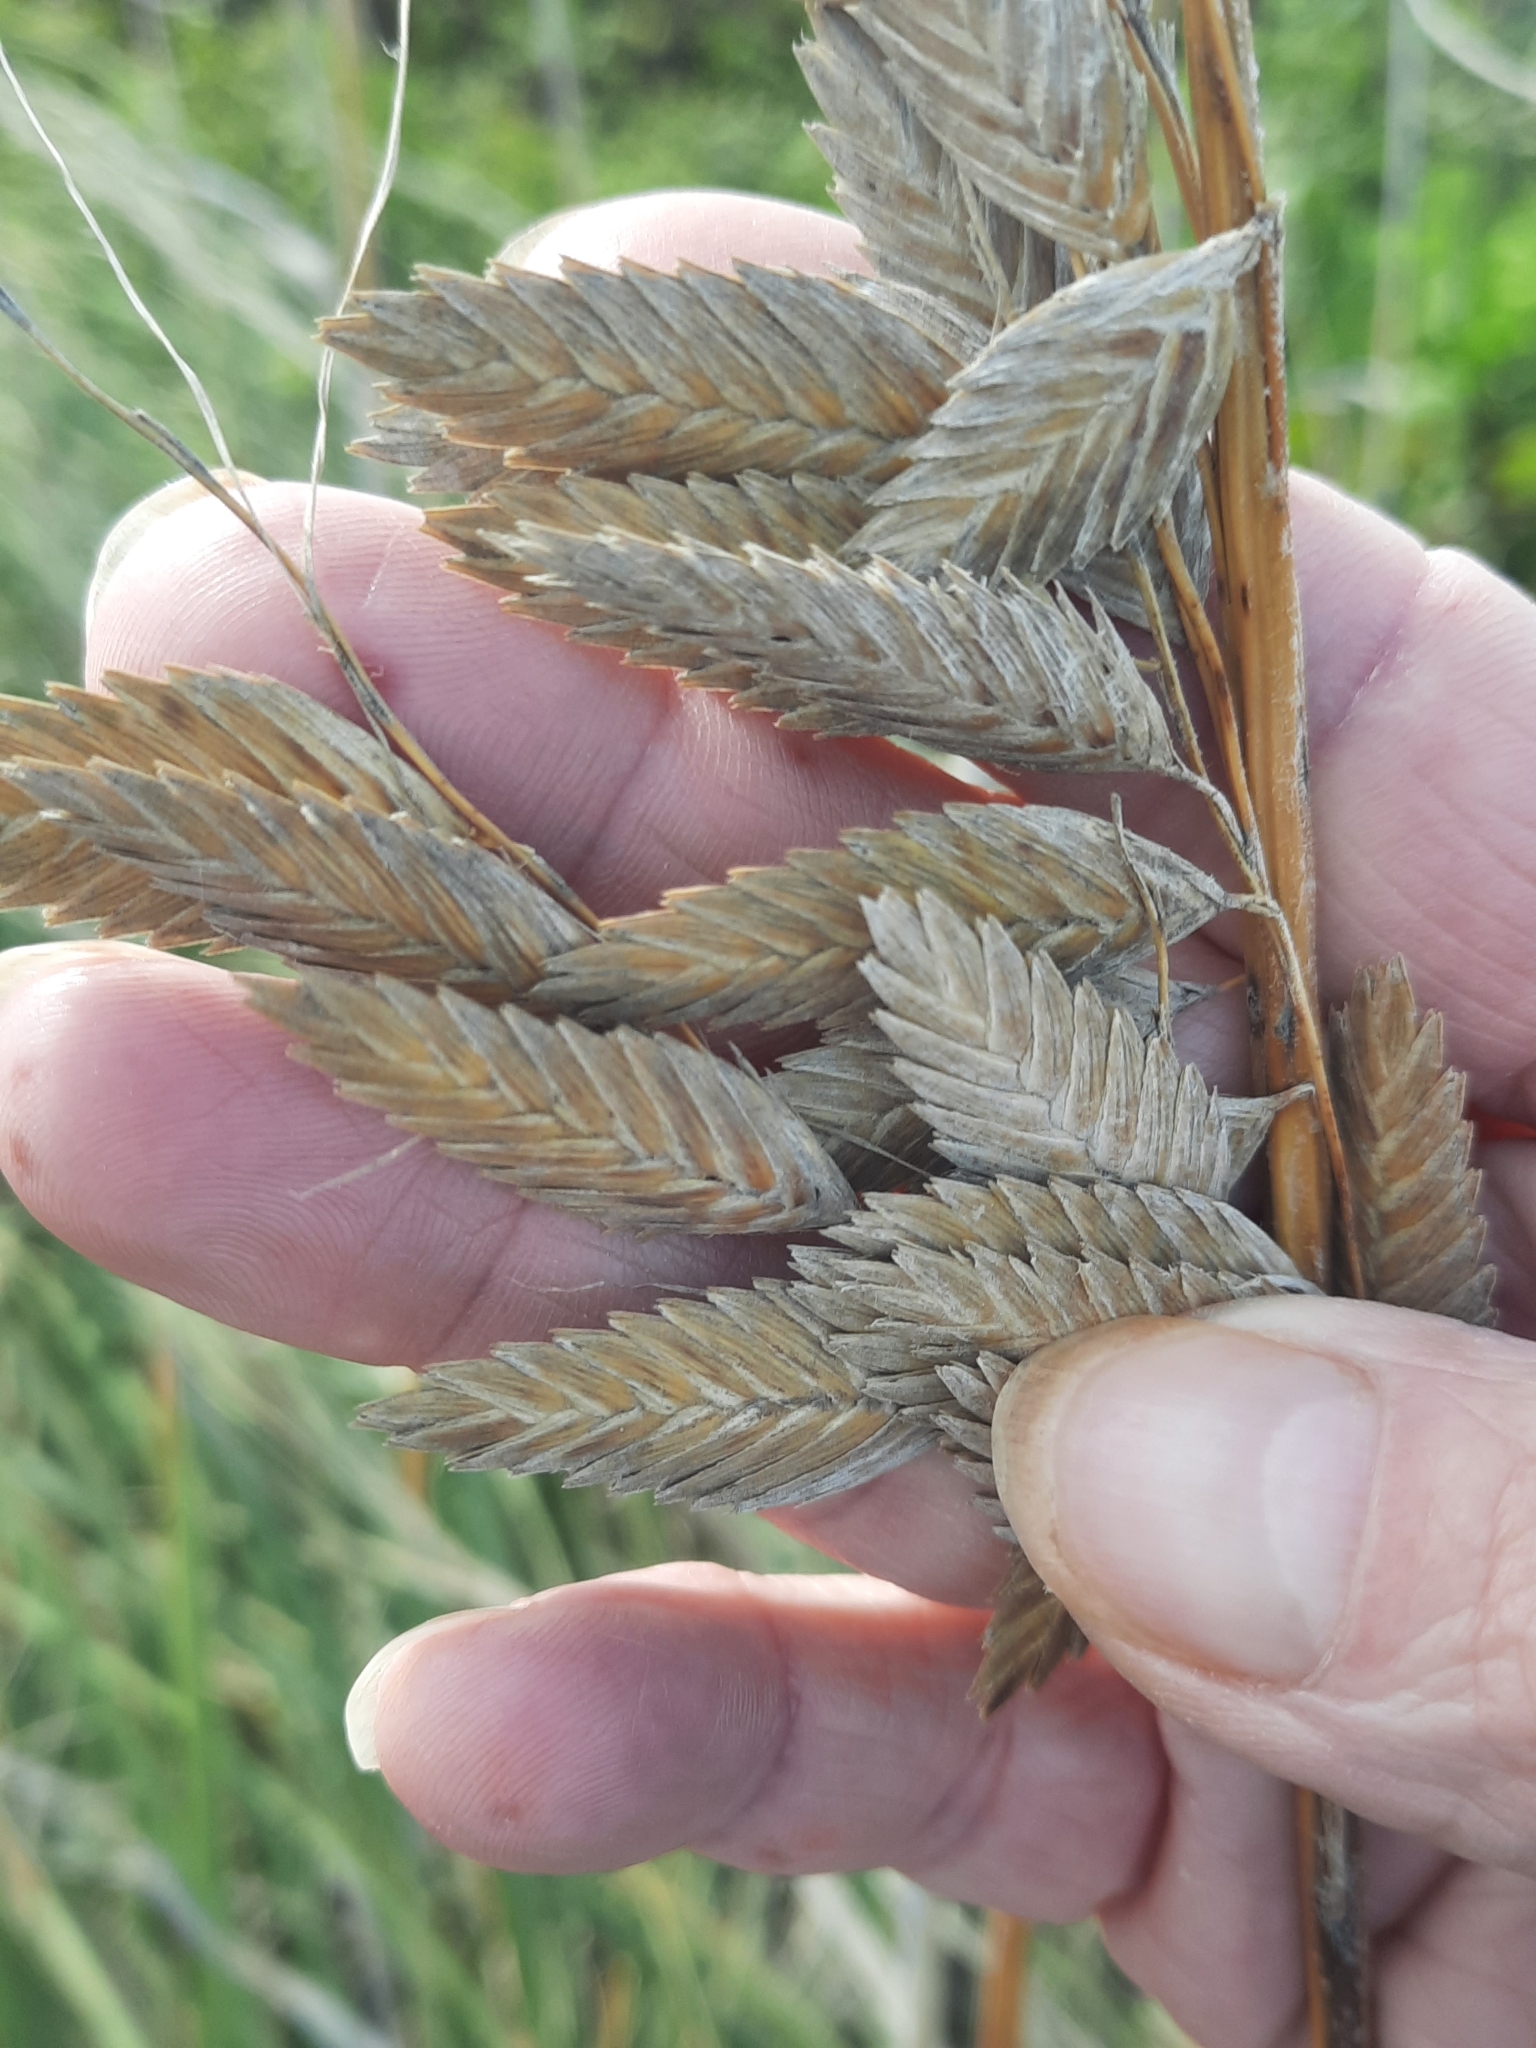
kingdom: Plantae
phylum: Tracheophyta
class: Liliopsida
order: Poales
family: Poaceae
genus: Uniola
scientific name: Uniola paniculata
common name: Seaside-oats
